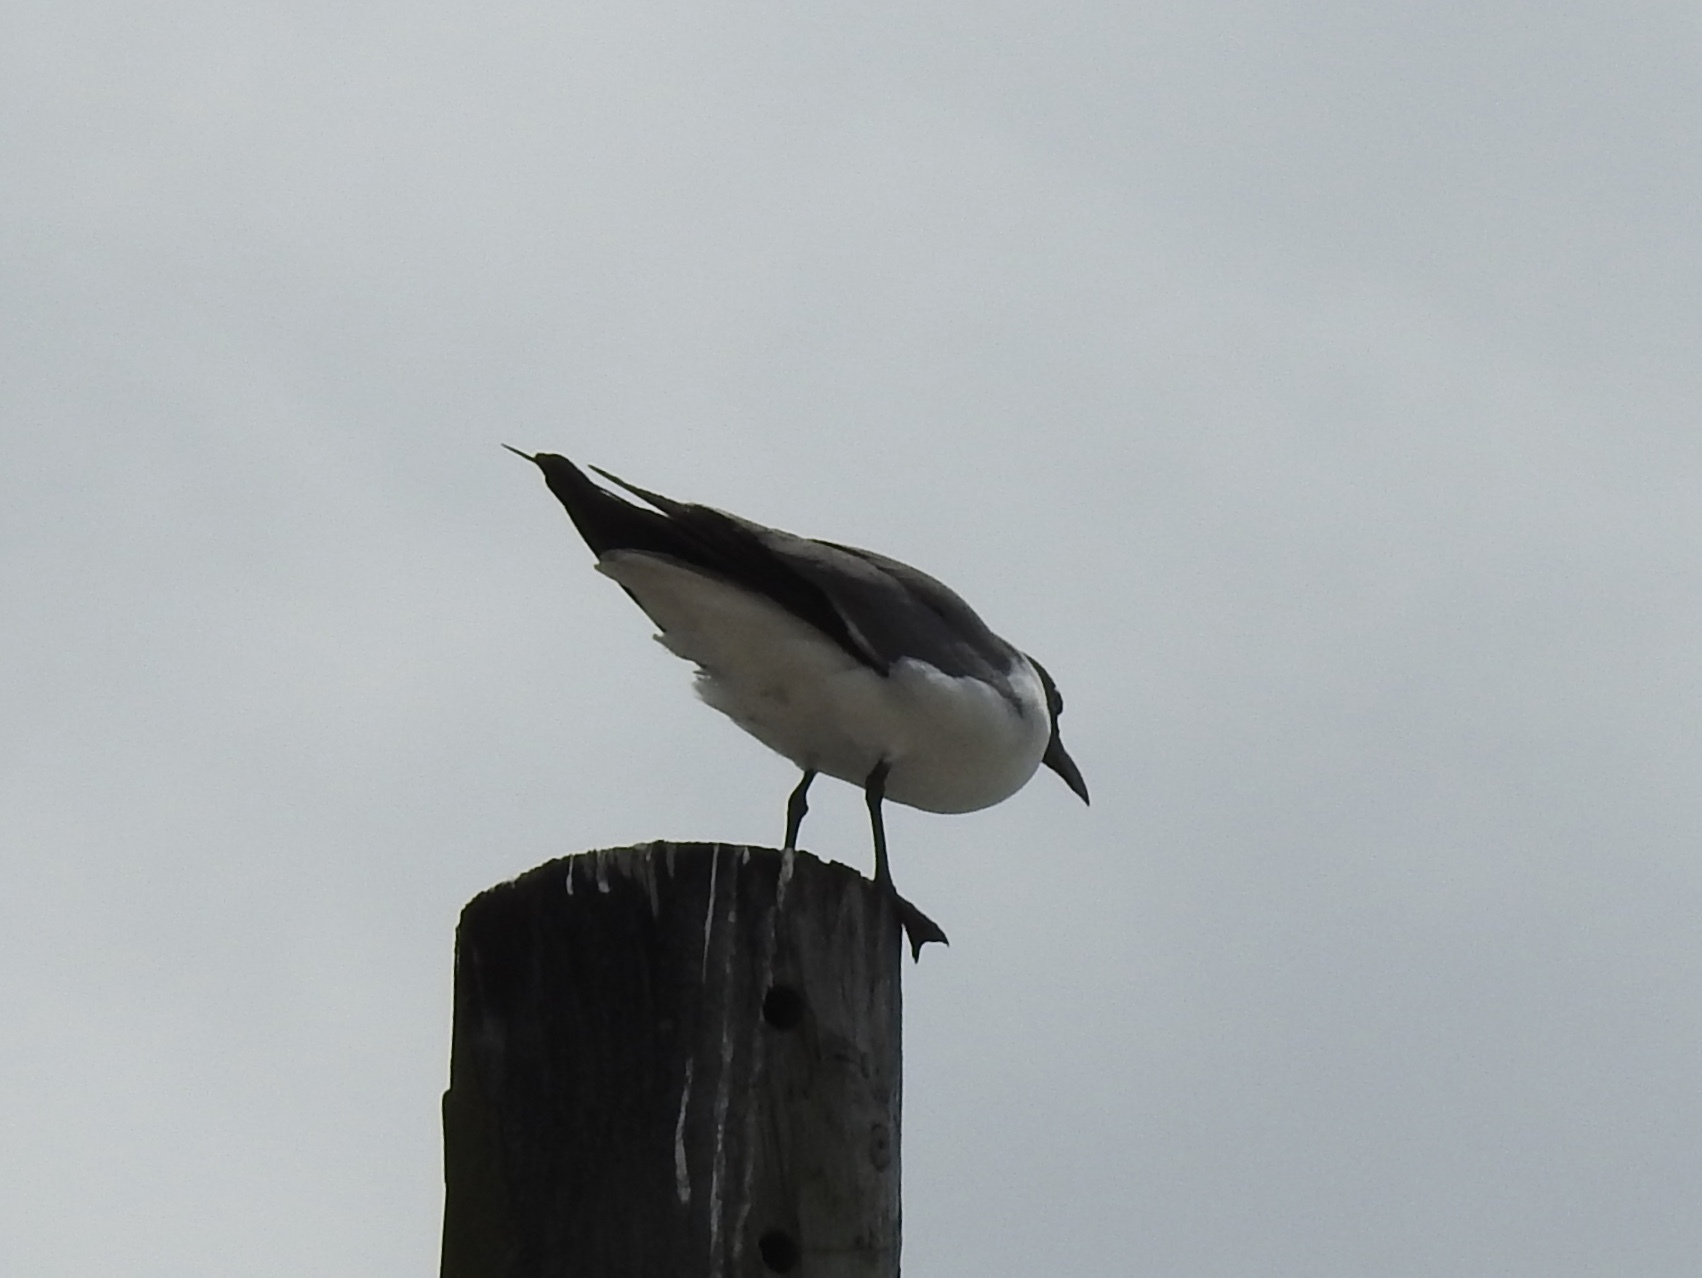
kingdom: Animalia
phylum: Chordata
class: Aves
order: Charadriiformes
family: Laridae
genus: Leucophaeus
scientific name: Leucophaeus atricilla
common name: Laughing gull
